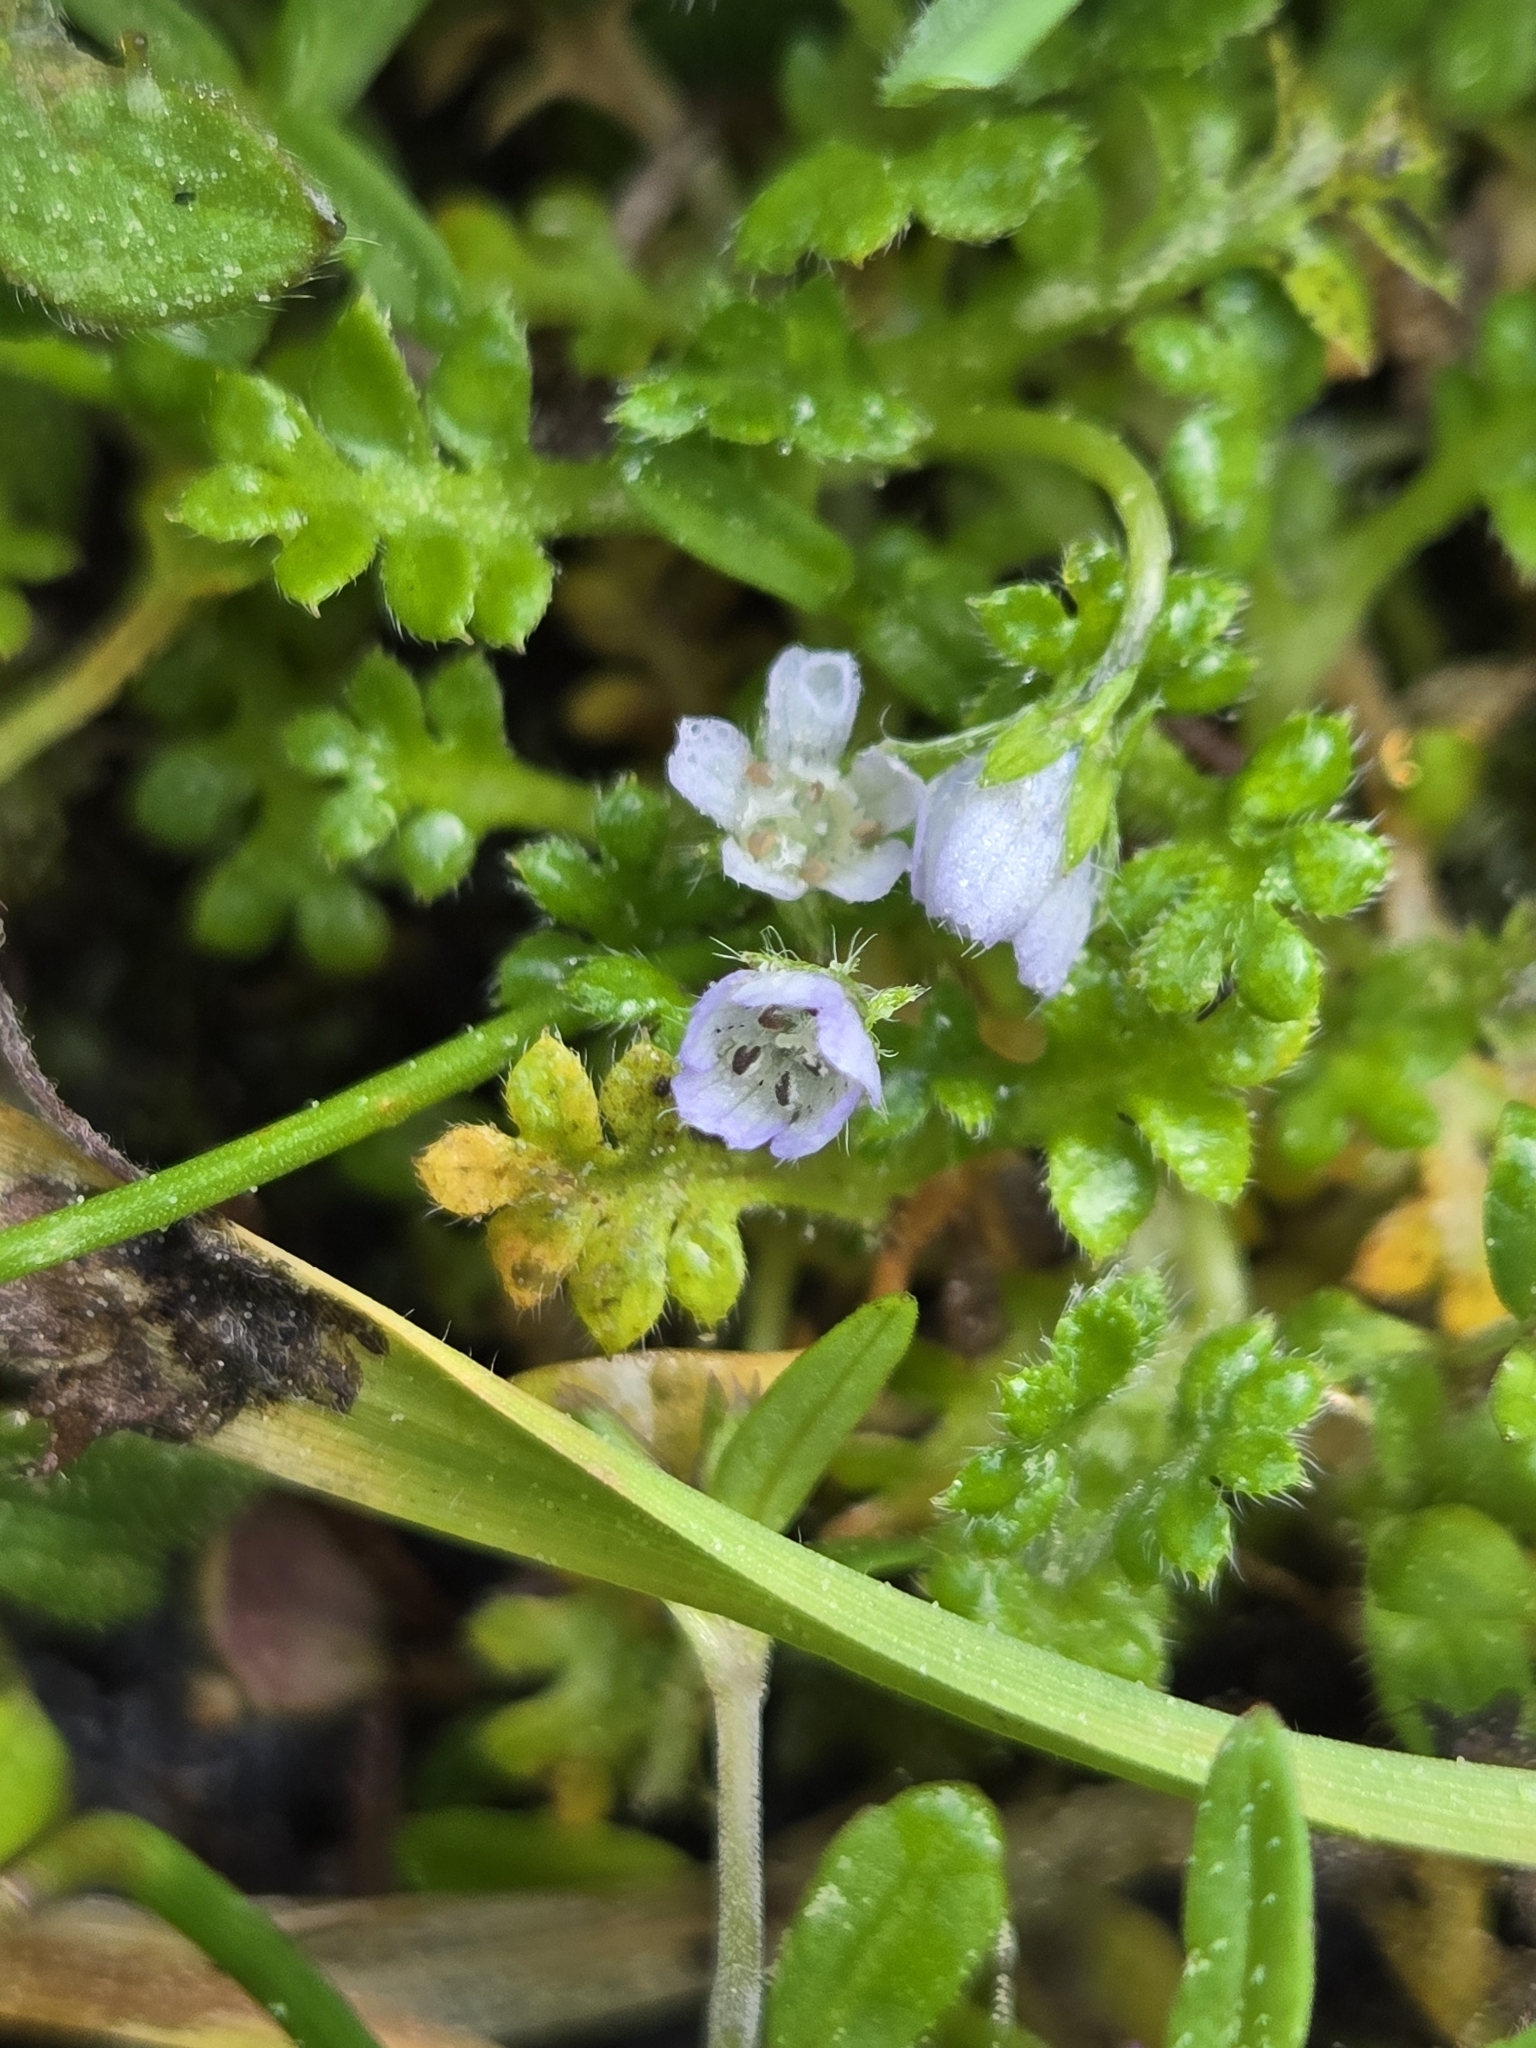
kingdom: Plantae
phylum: Tracheophyta
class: Magnoliopsida
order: Boraginales
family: Hydrophyllaceae
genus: Nemophila
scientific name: Nemophila pedunculata
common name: Little-foot baby-blue-eyes
